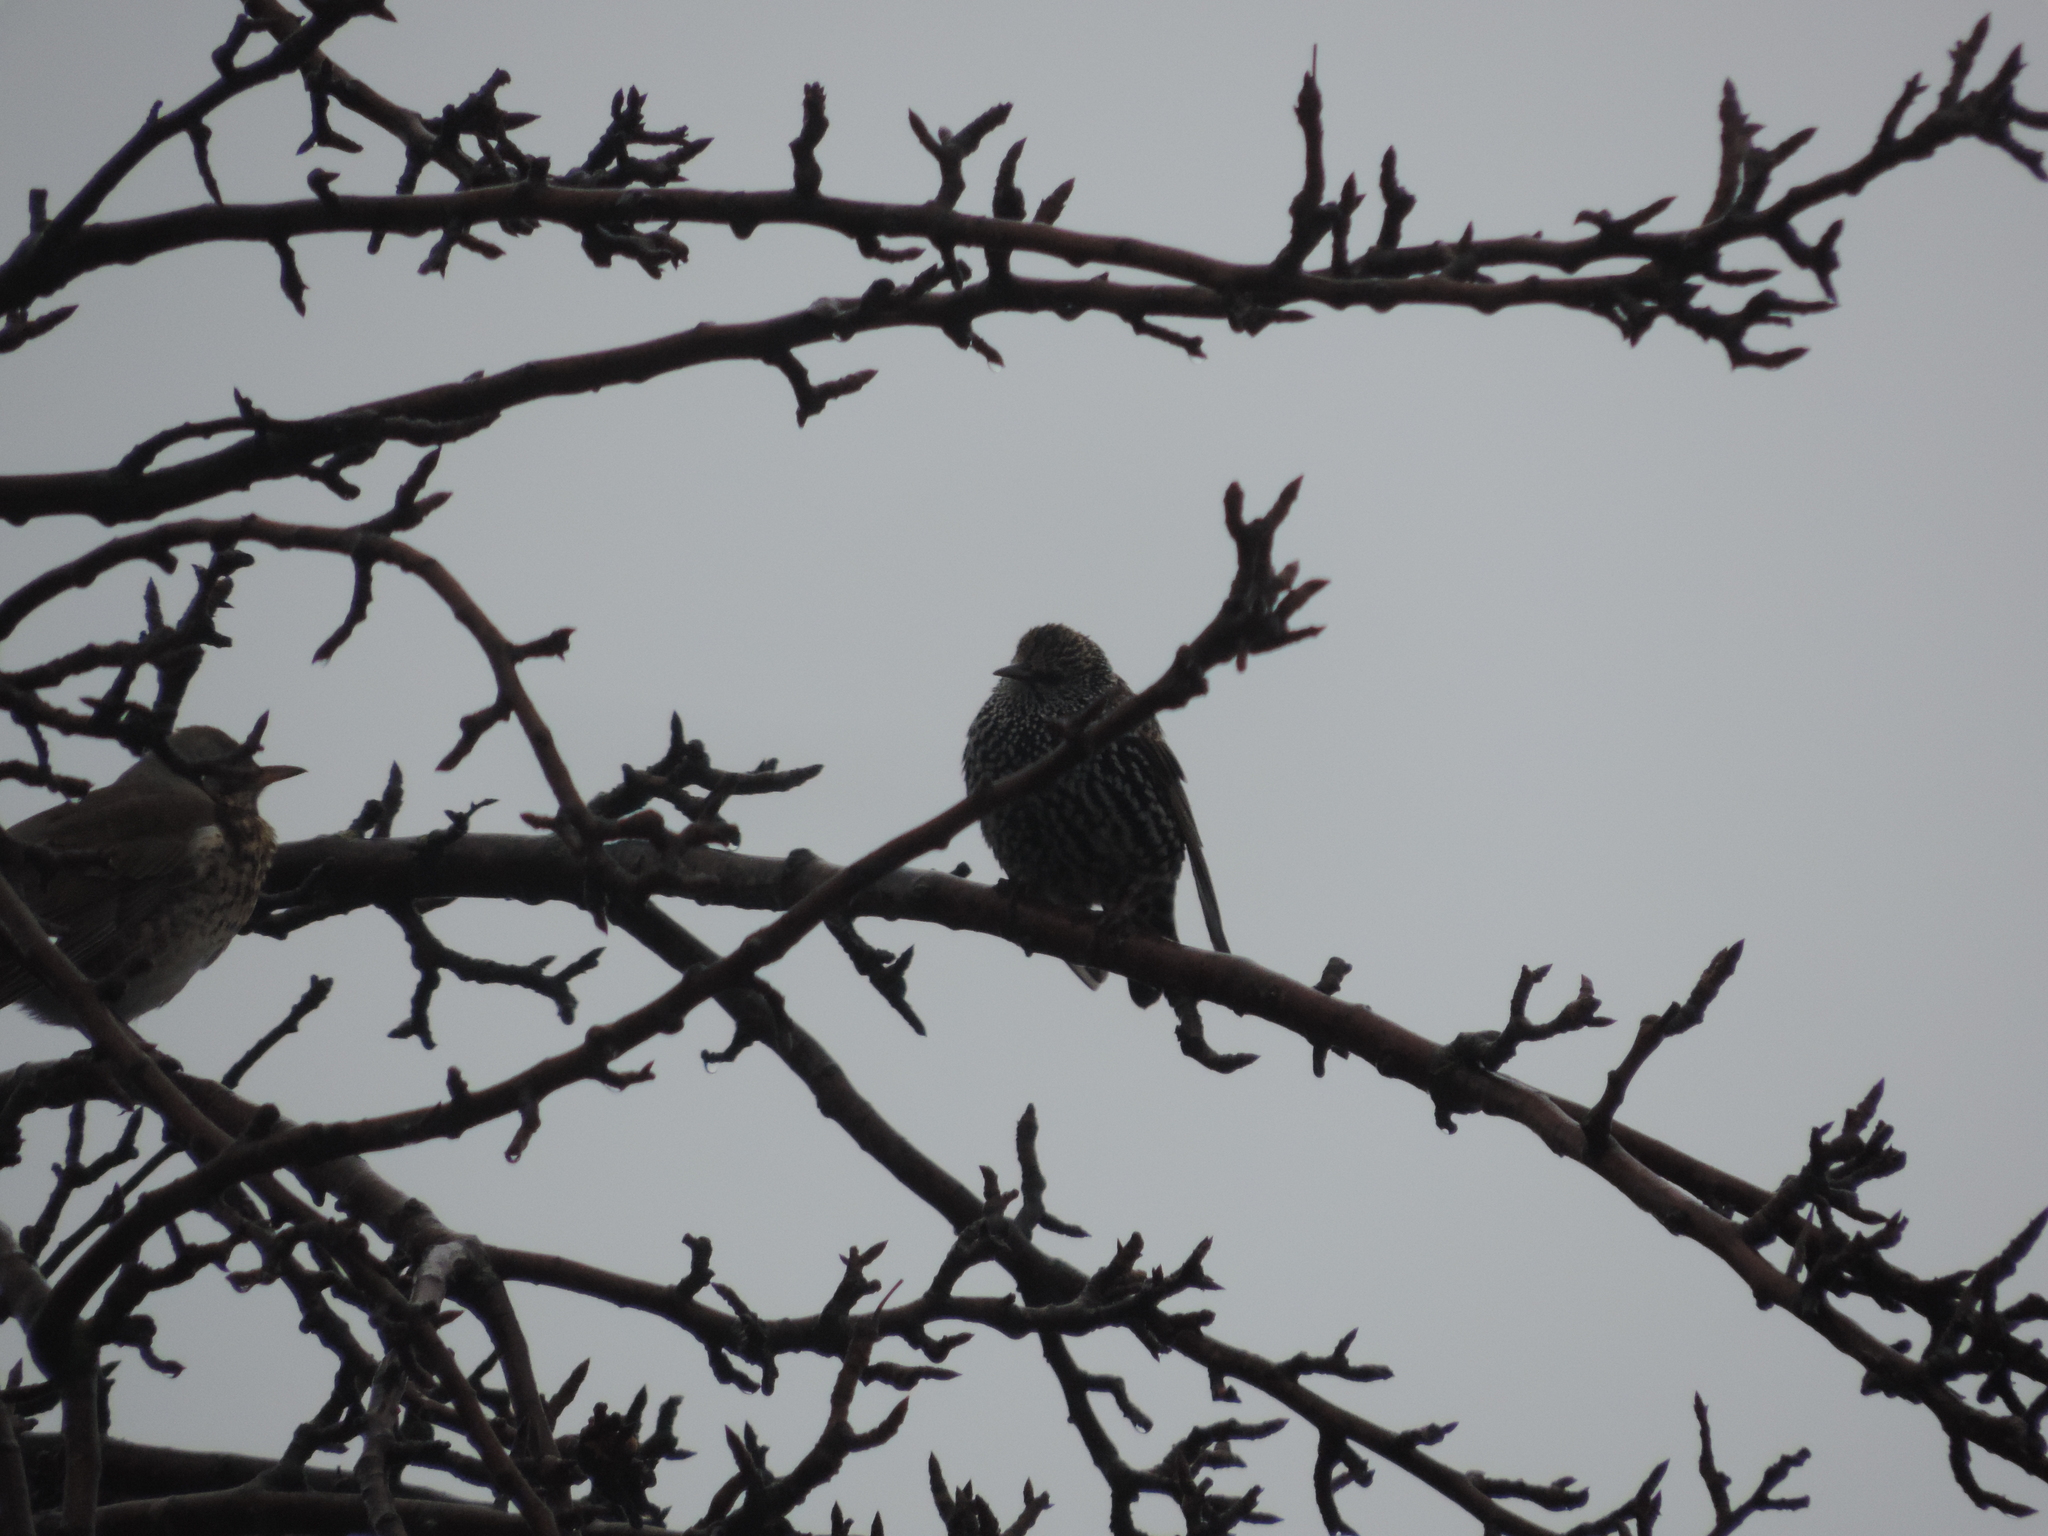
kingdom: Animalia
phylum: Chordata
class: Aves
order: Passeriformes
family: Sturnidae
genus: Sturnus
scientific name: Sturnus vulgaris
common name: Common starling
